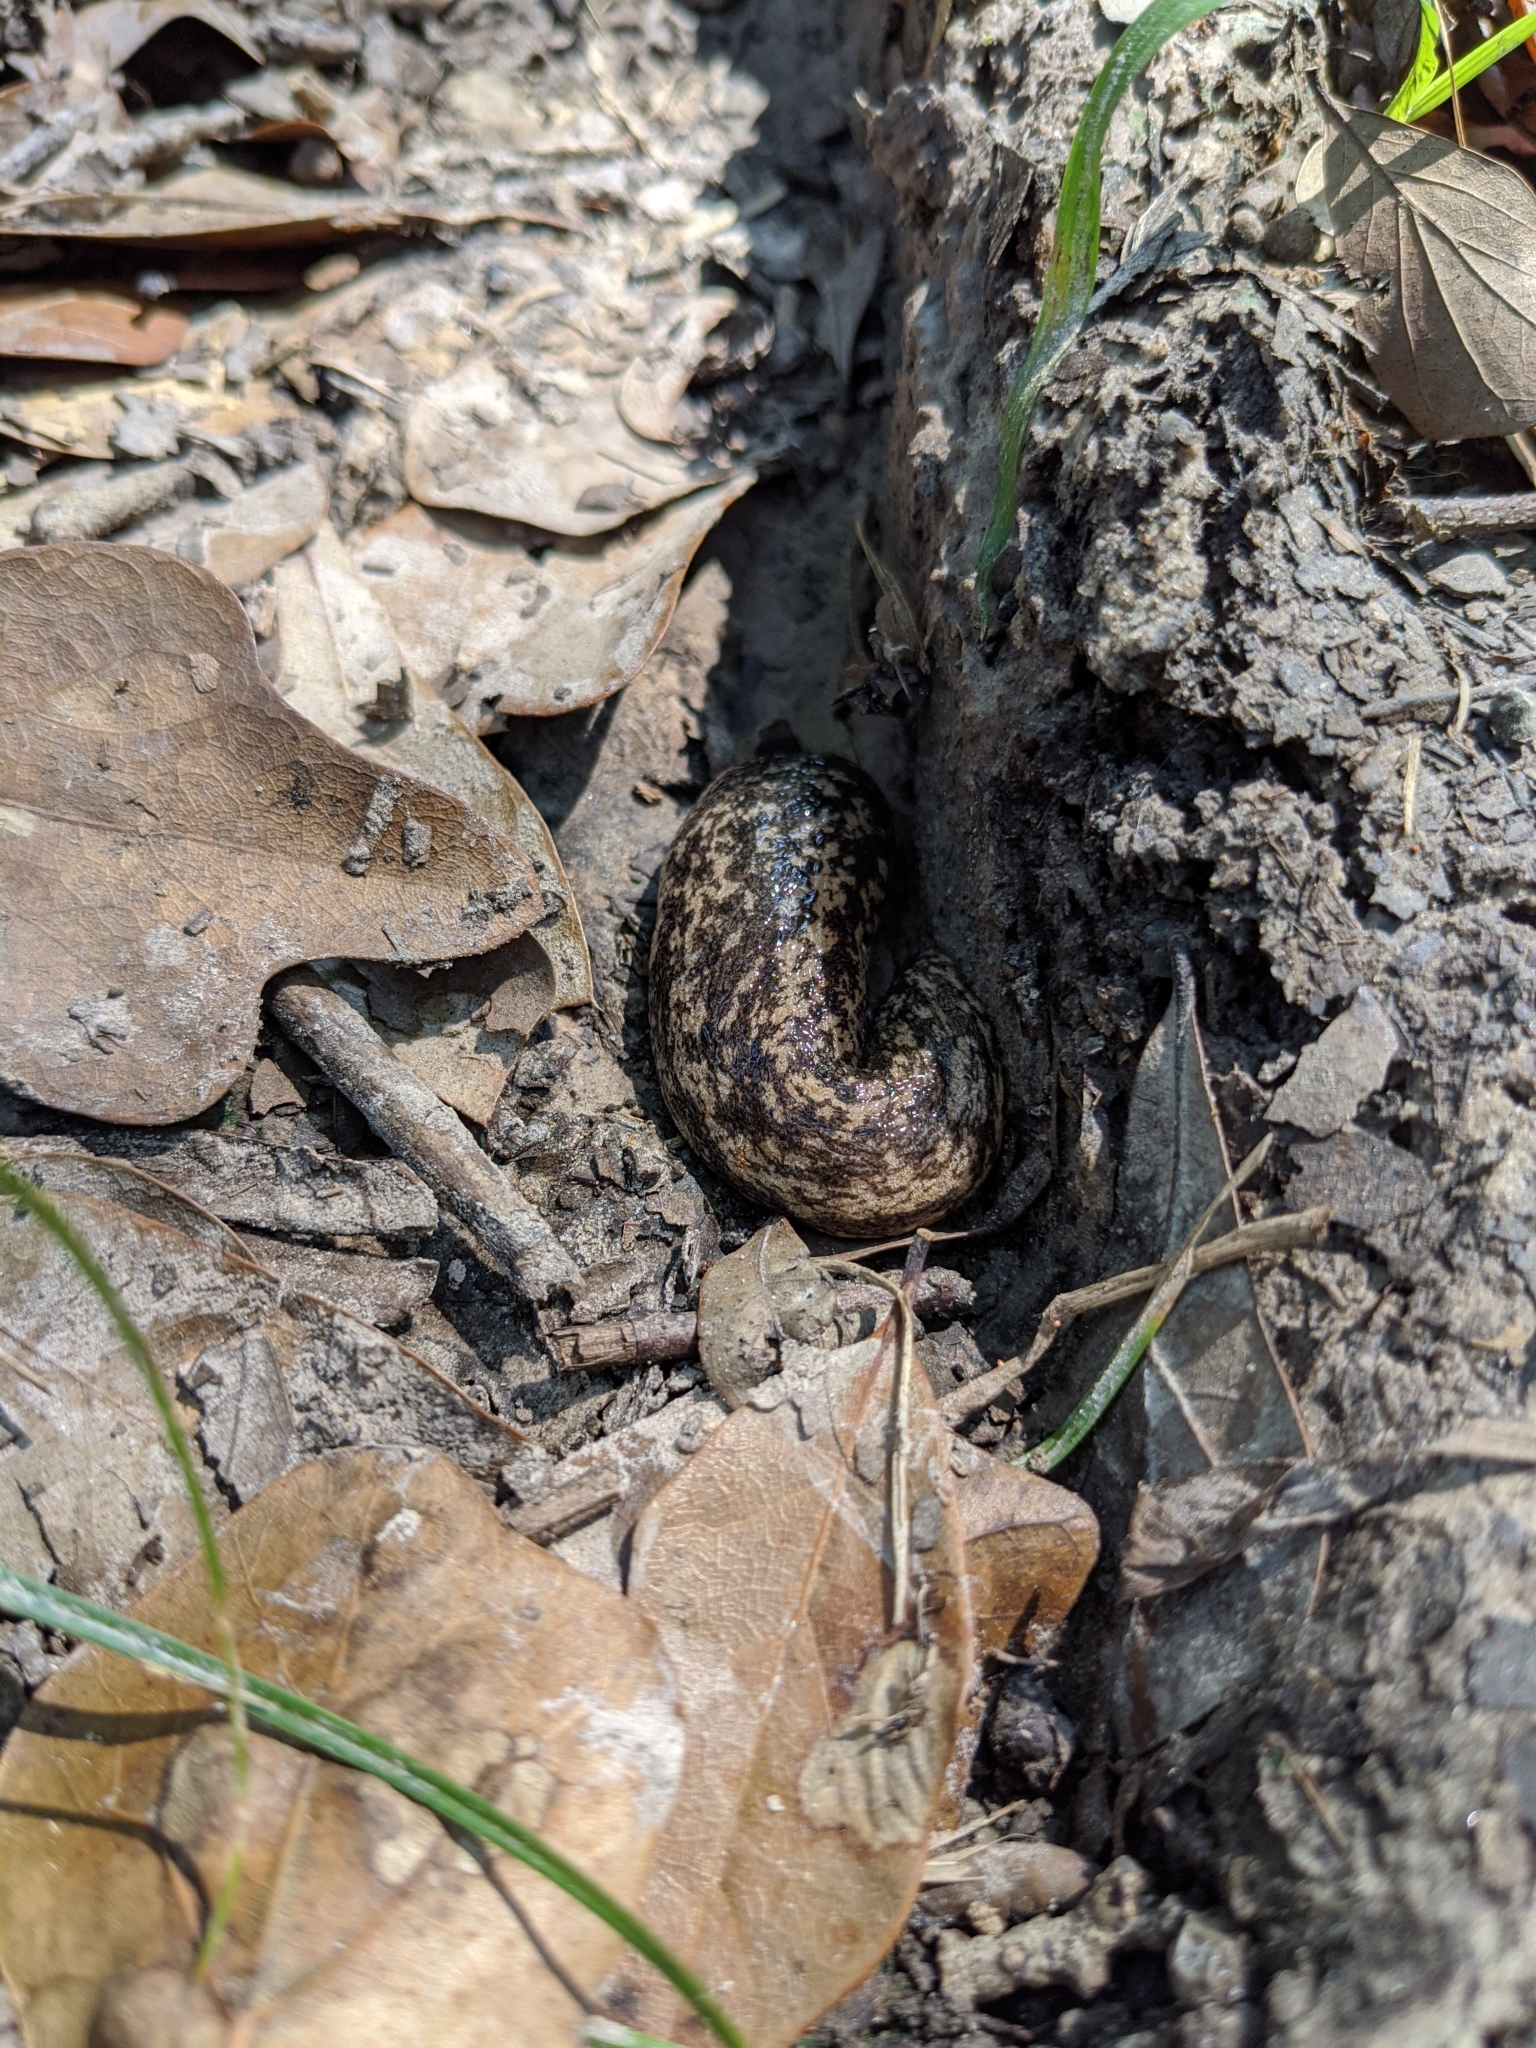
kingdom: Animalia
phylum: Mollusca
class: Gastropoda
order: Stylommatophora
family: Philomycidae
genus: Philomycus
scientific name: Philomycus carolinianus
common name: Carolina mantleslug
